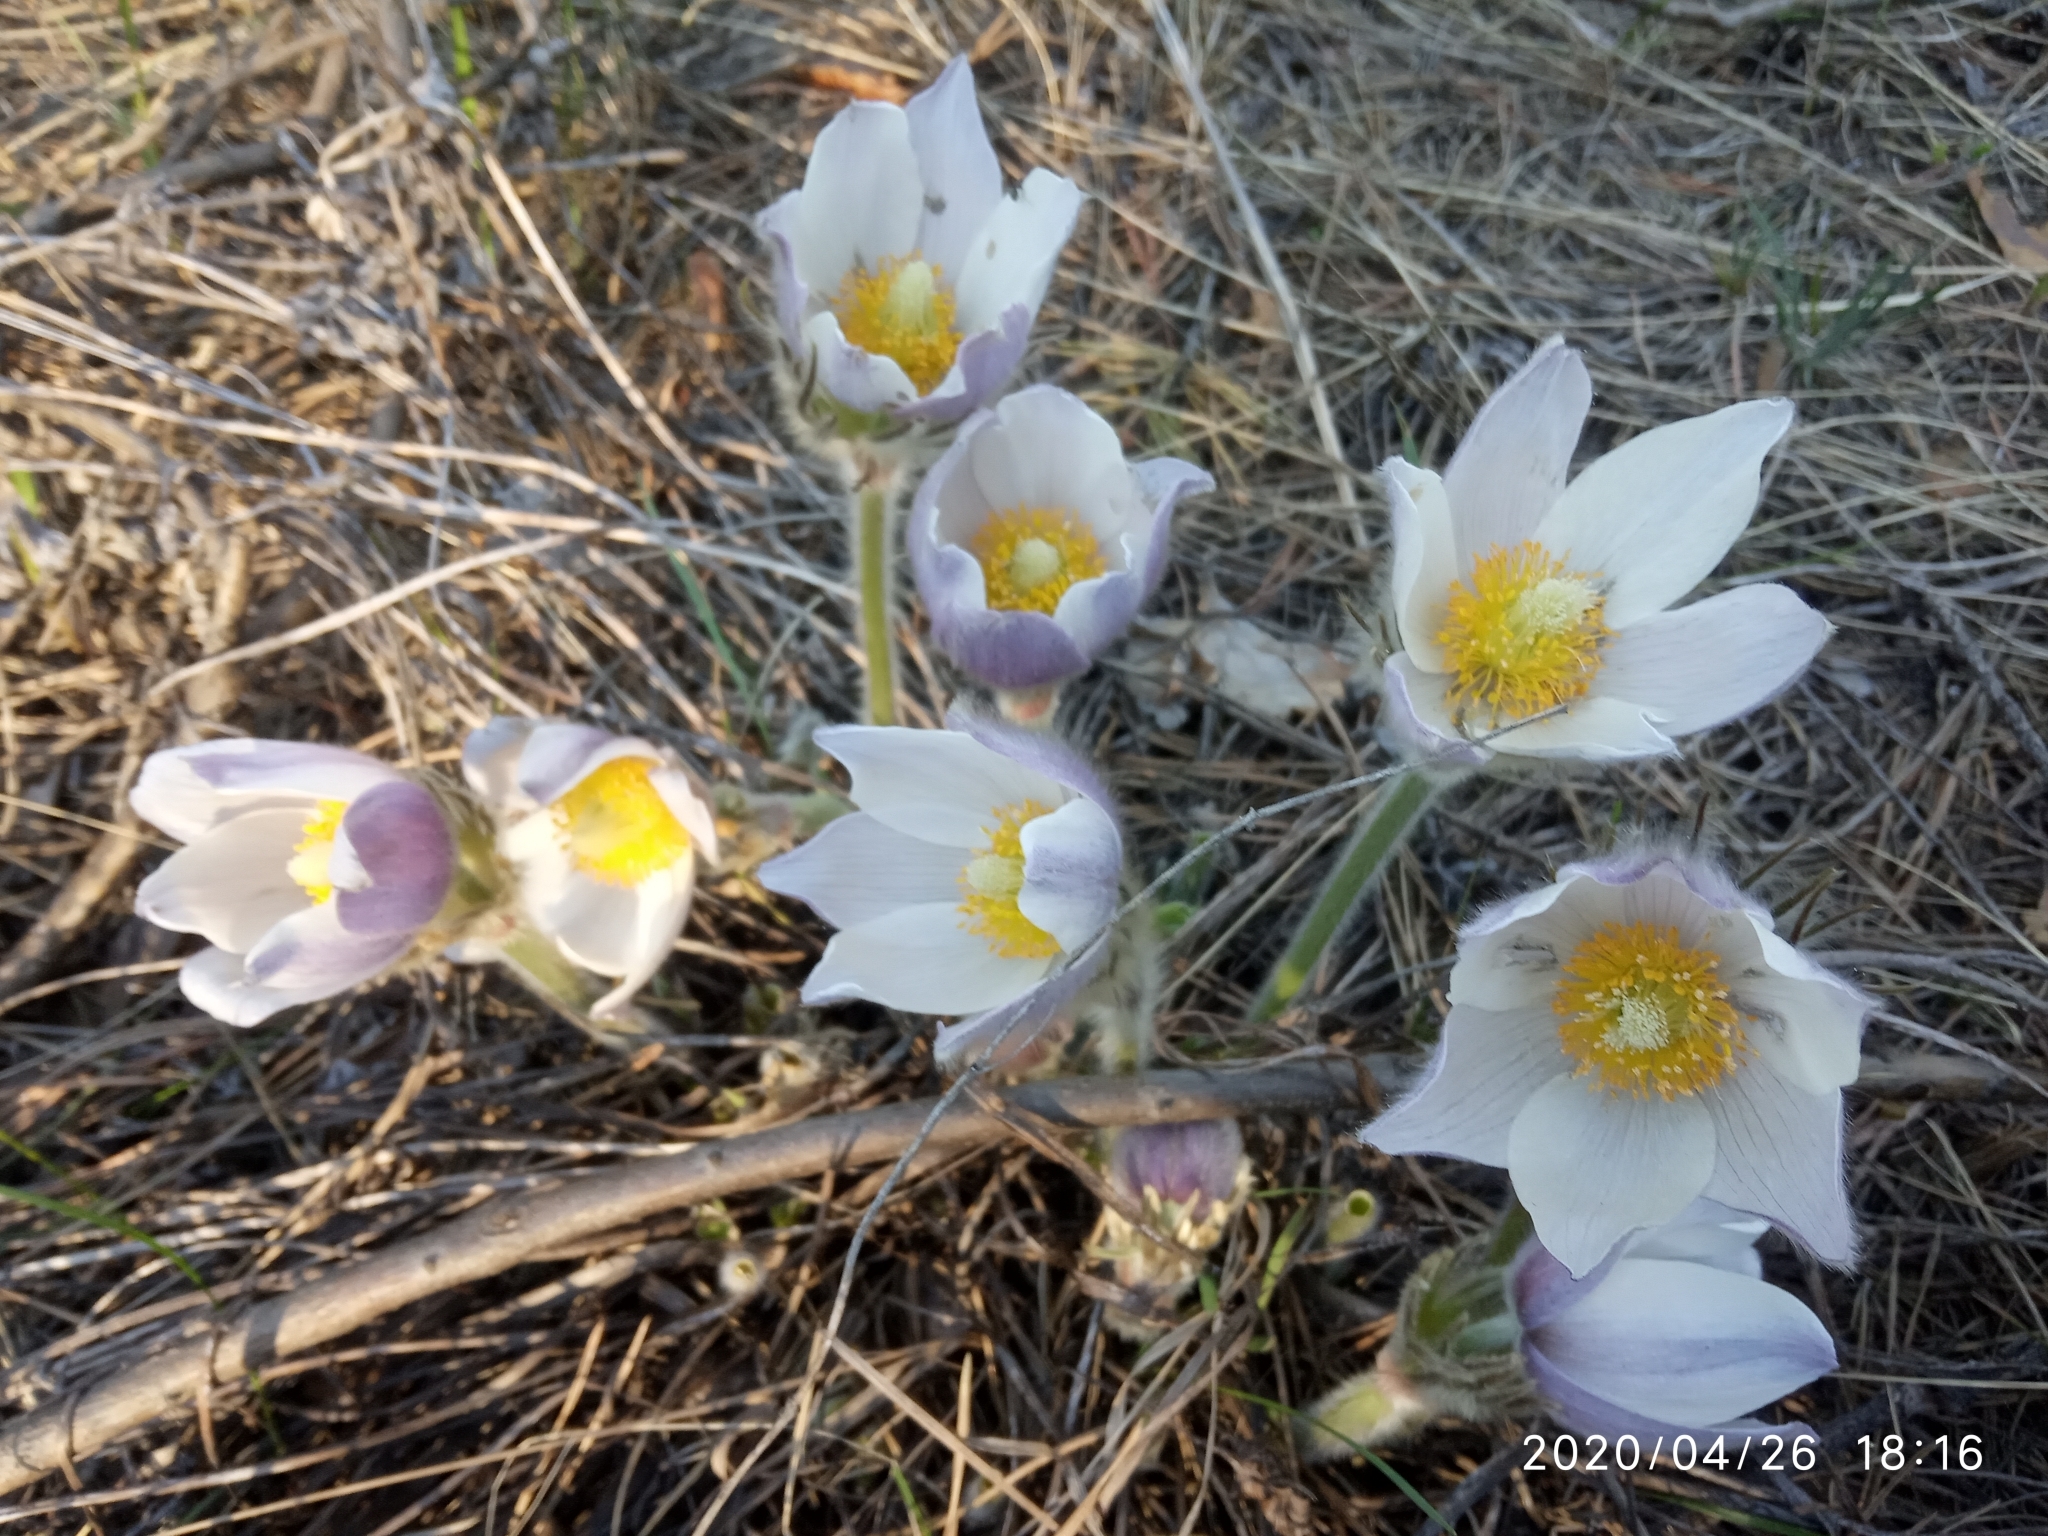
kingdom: Plantae
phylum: Tracheophyta
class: Magnoliopsida
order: Ranunculales
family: Ranunculaceae
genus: Pulsatilla
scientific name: Pulsatilla patens
